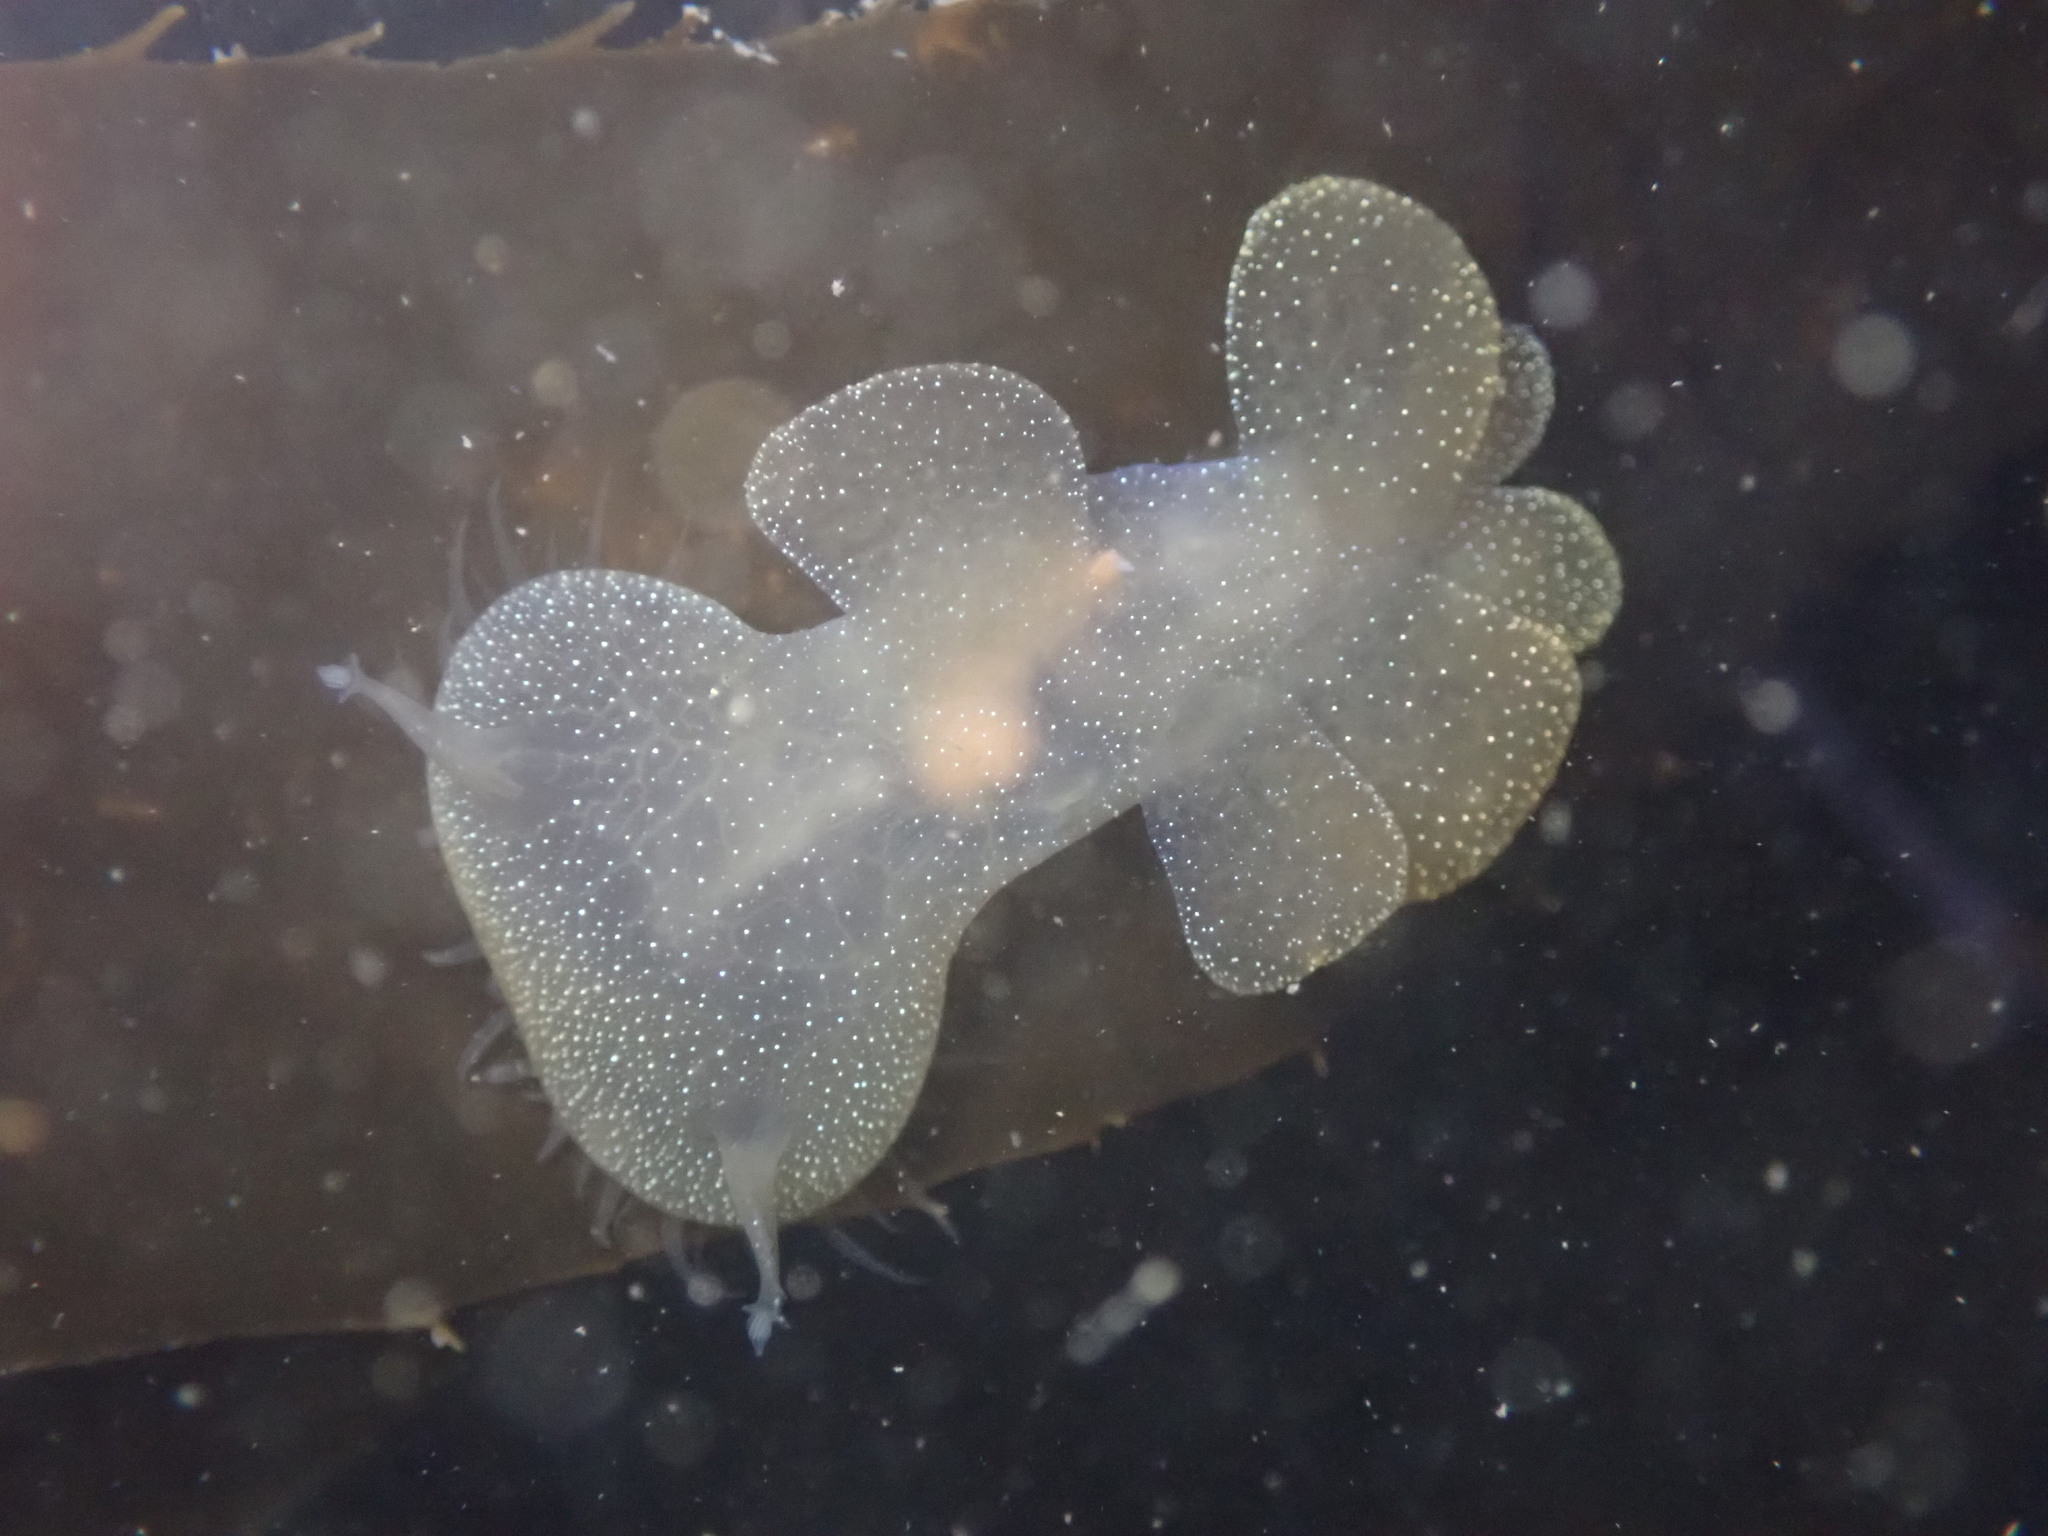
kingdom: Animalia
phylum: Mollusca
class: Gastropoda
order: Nudibranchia
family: Tethydidae
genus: Melibe
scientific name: Melibe leonina
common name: Lion nudibranch
